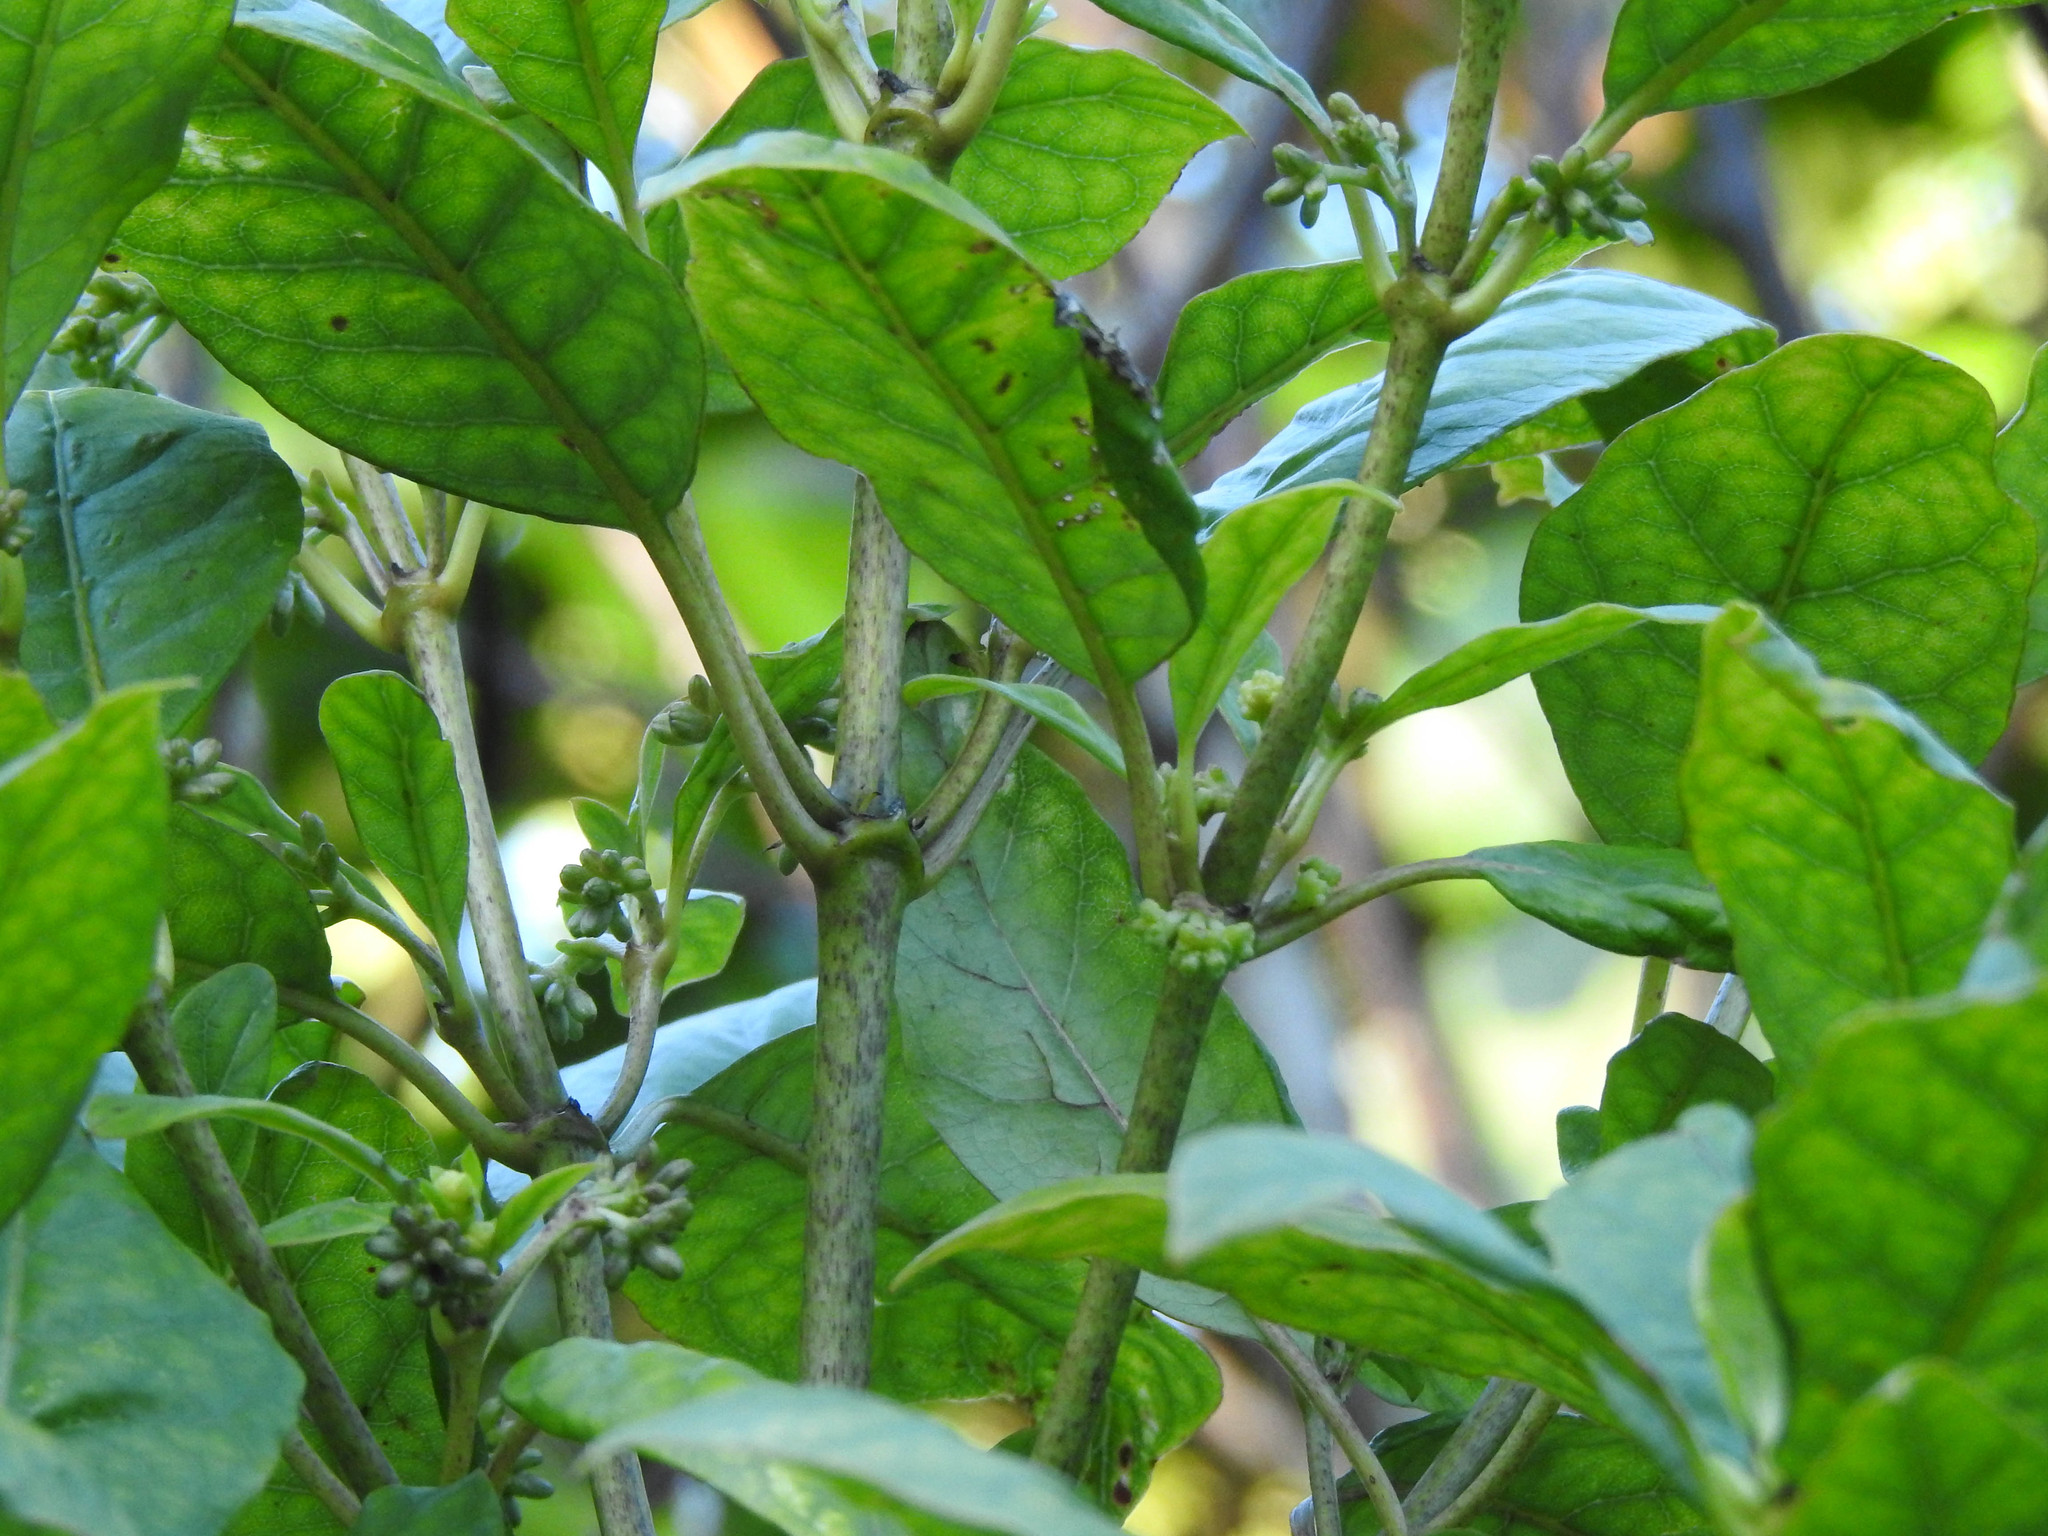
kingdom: Plantae
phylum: Tracheophyta
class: Magnoliopsida
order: Gentianales
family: Rubiaceae
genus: Coprosma
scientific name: Coprosma autumnalis
